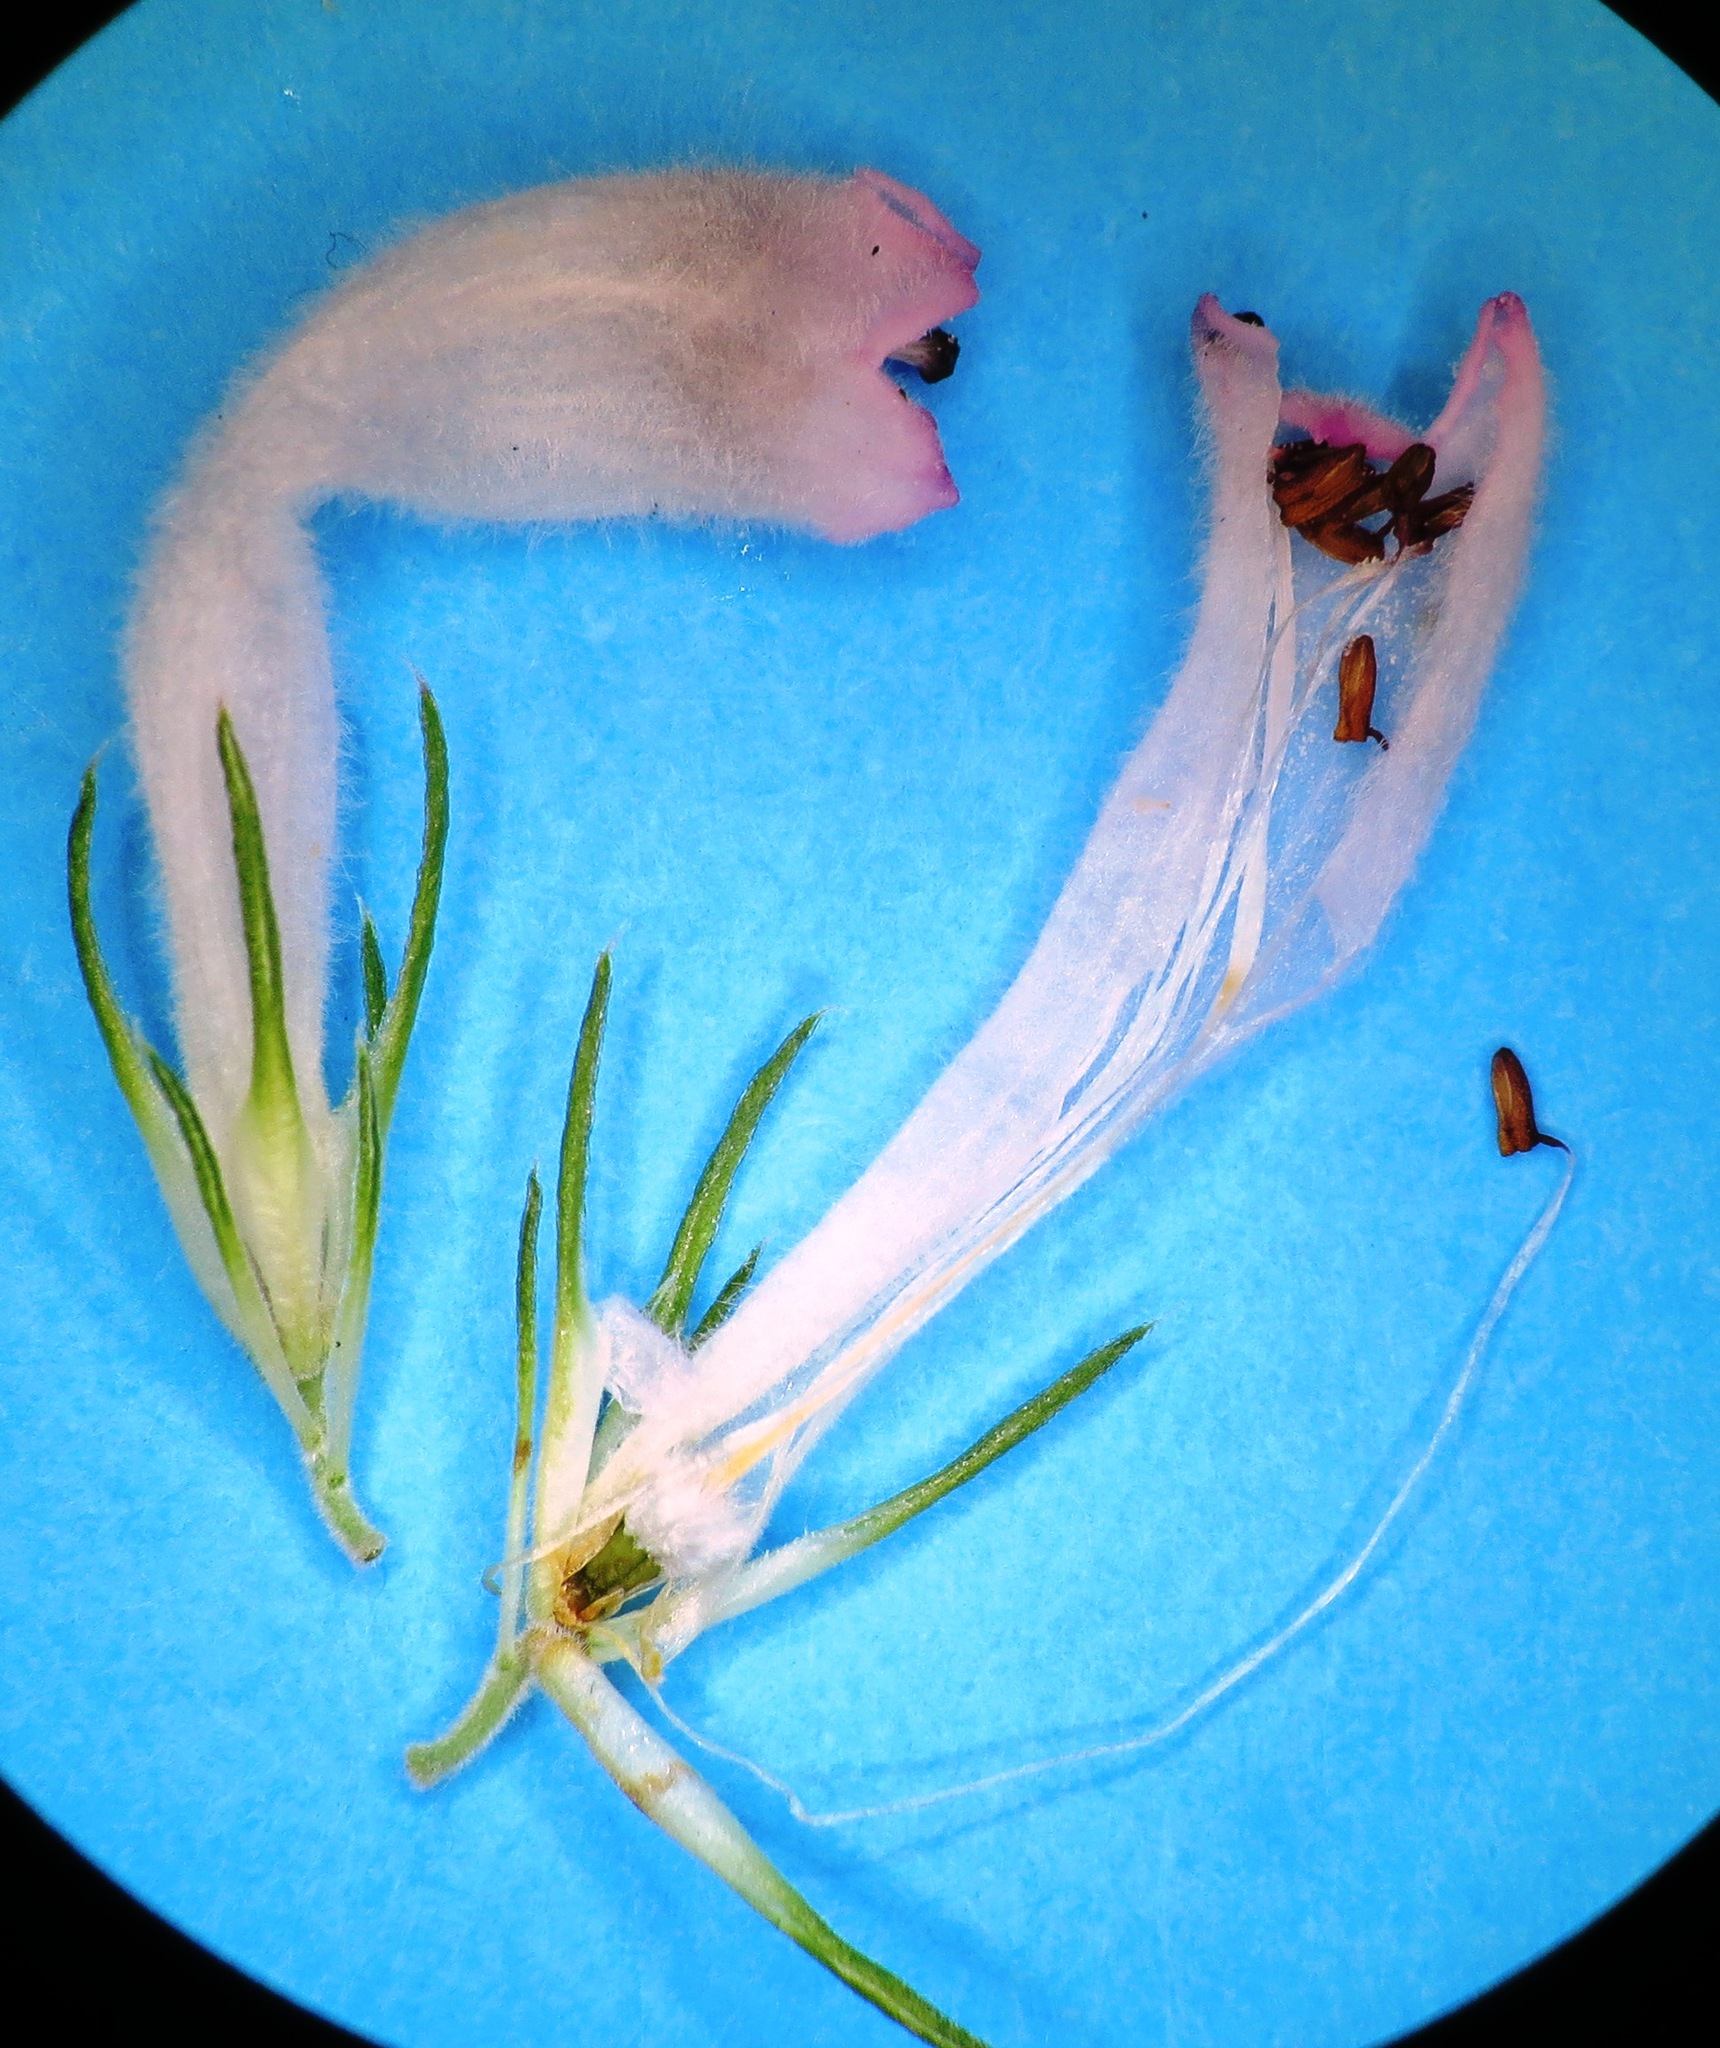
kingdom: Plantae
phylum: Tracheophyta
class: Magnoliopsida
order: Ericales
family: Ericaceae
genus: Erica
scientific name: Erica vestita
